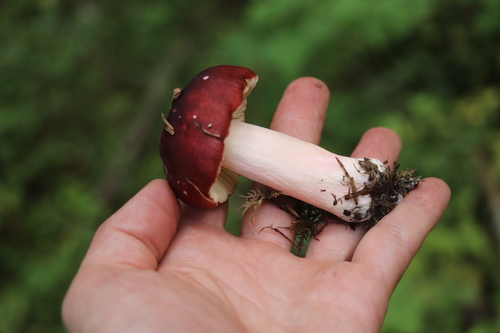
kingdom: Fungi
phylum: Basidiomycota
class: Agaricomycetes
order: Russulales
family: Russulaceae
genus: Russula
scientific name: Russula sanguinea
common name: Bloody brittlegill
